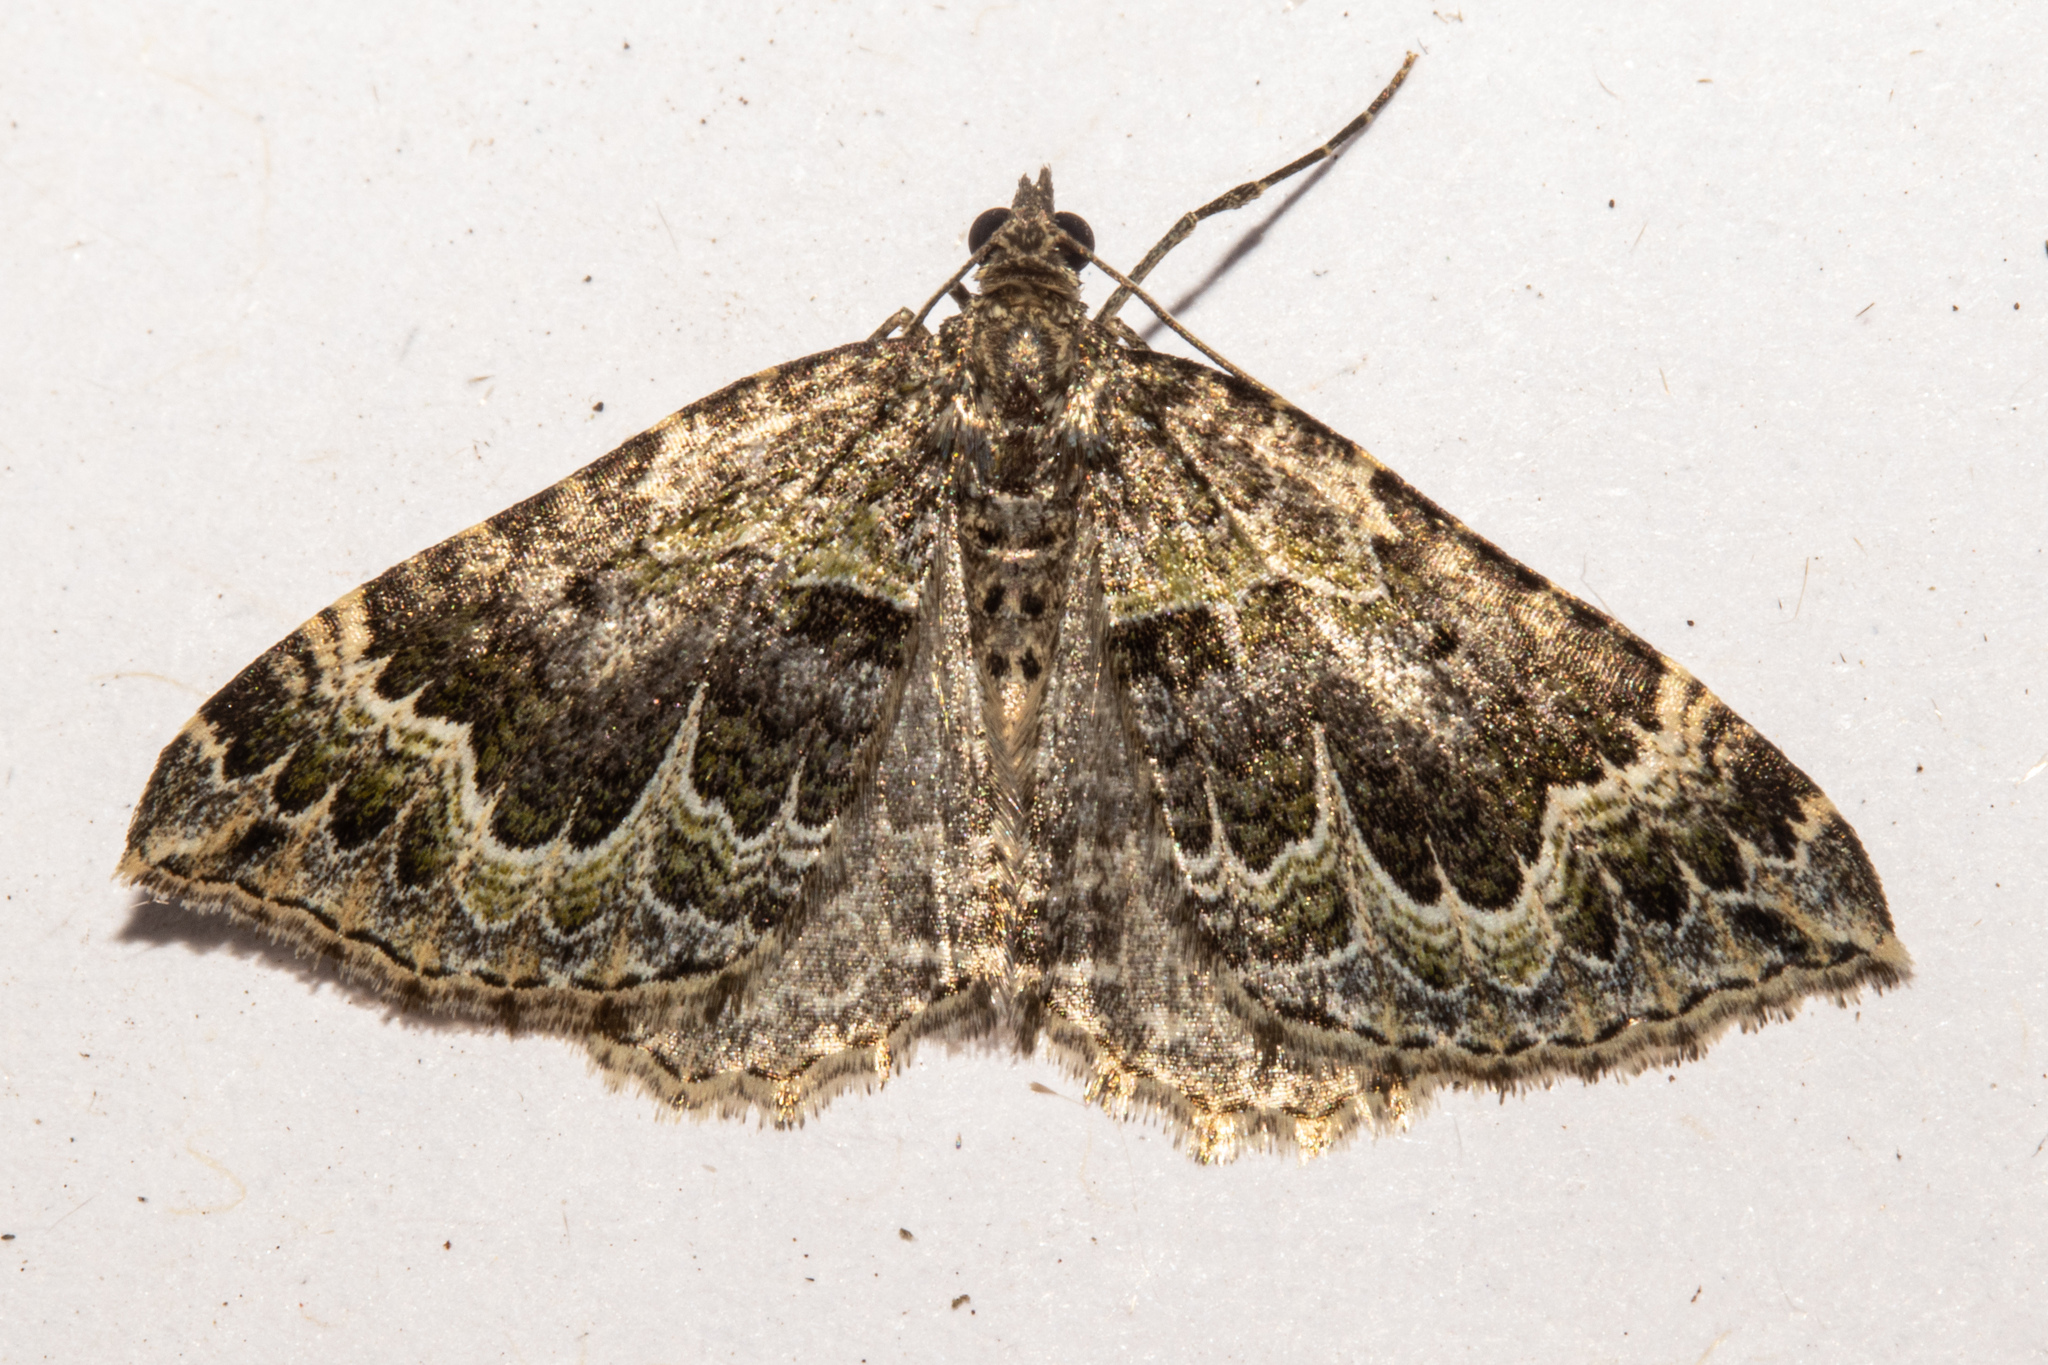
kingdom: Animalia
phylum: Arthropoda
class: Insecta
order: Lepidoptera
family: Geometridae
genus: Hydriomena
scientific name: Hydriomena rixata
